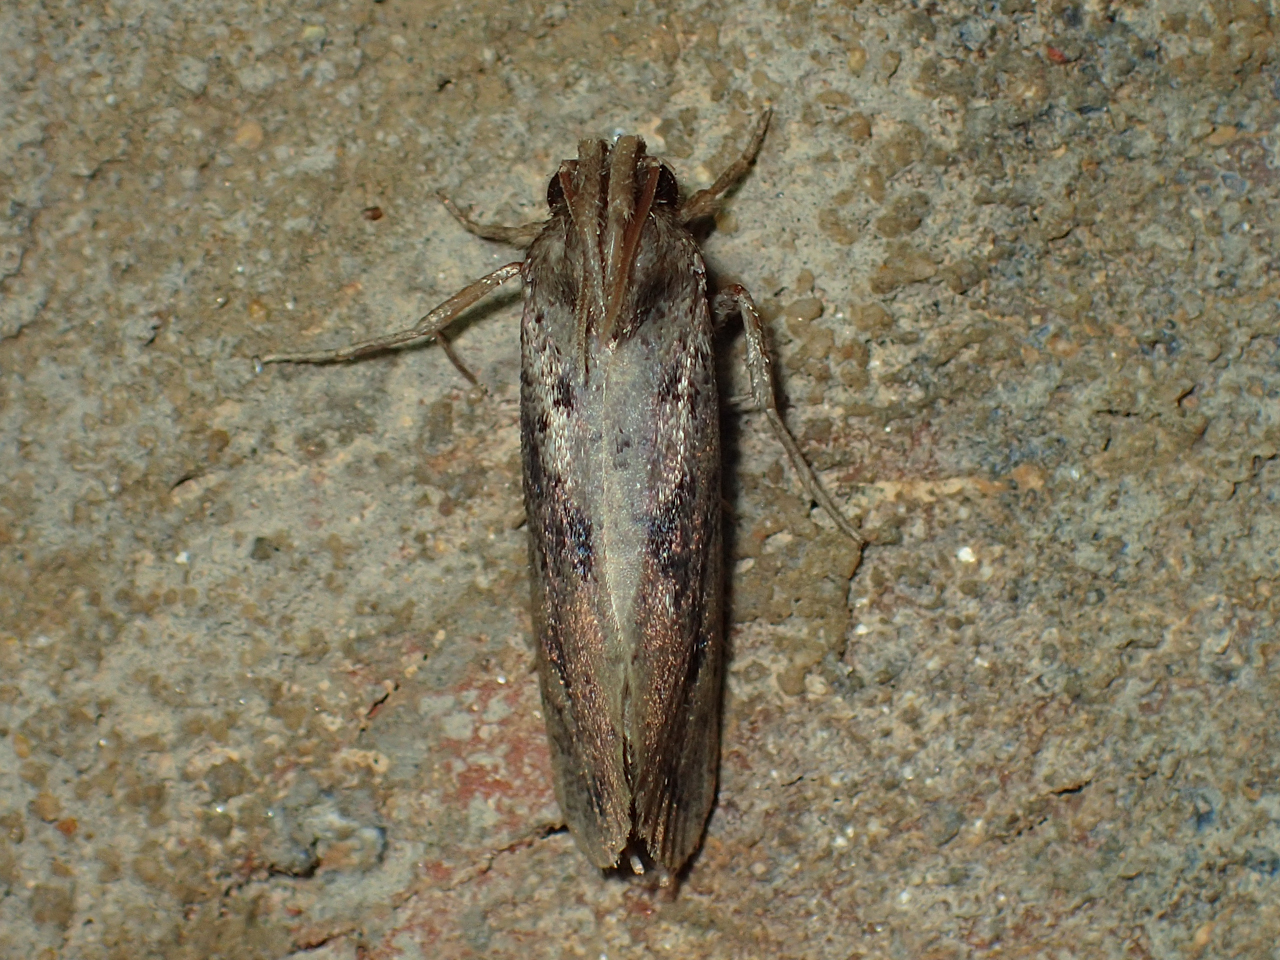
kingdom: Animalia
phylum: Arthropoda
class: Insecta
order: Lepidoptera
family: Tineidae
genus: Acrolophus
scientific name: Acrolophus popeanella
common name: Clemens' grass tubeworm moth
